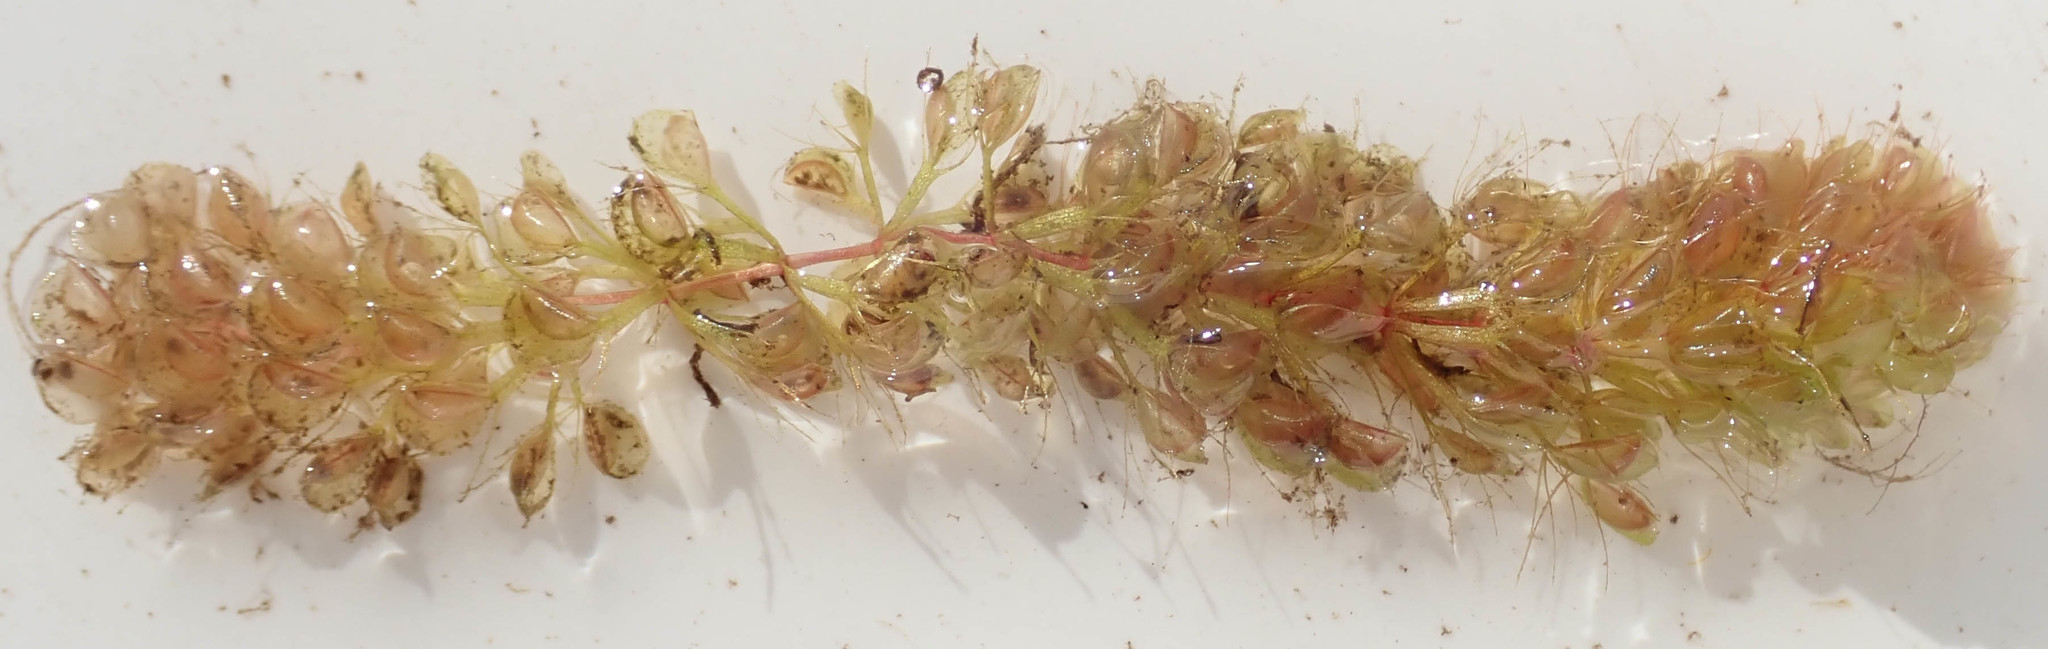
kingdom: Plantae
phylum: Tracheophyta
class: Magnoliopsida
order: Caryophyllales
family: Droseraceae
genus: Aldrovanda
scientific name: Aldrovanda vesiculosa
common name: Waterwheel plant
